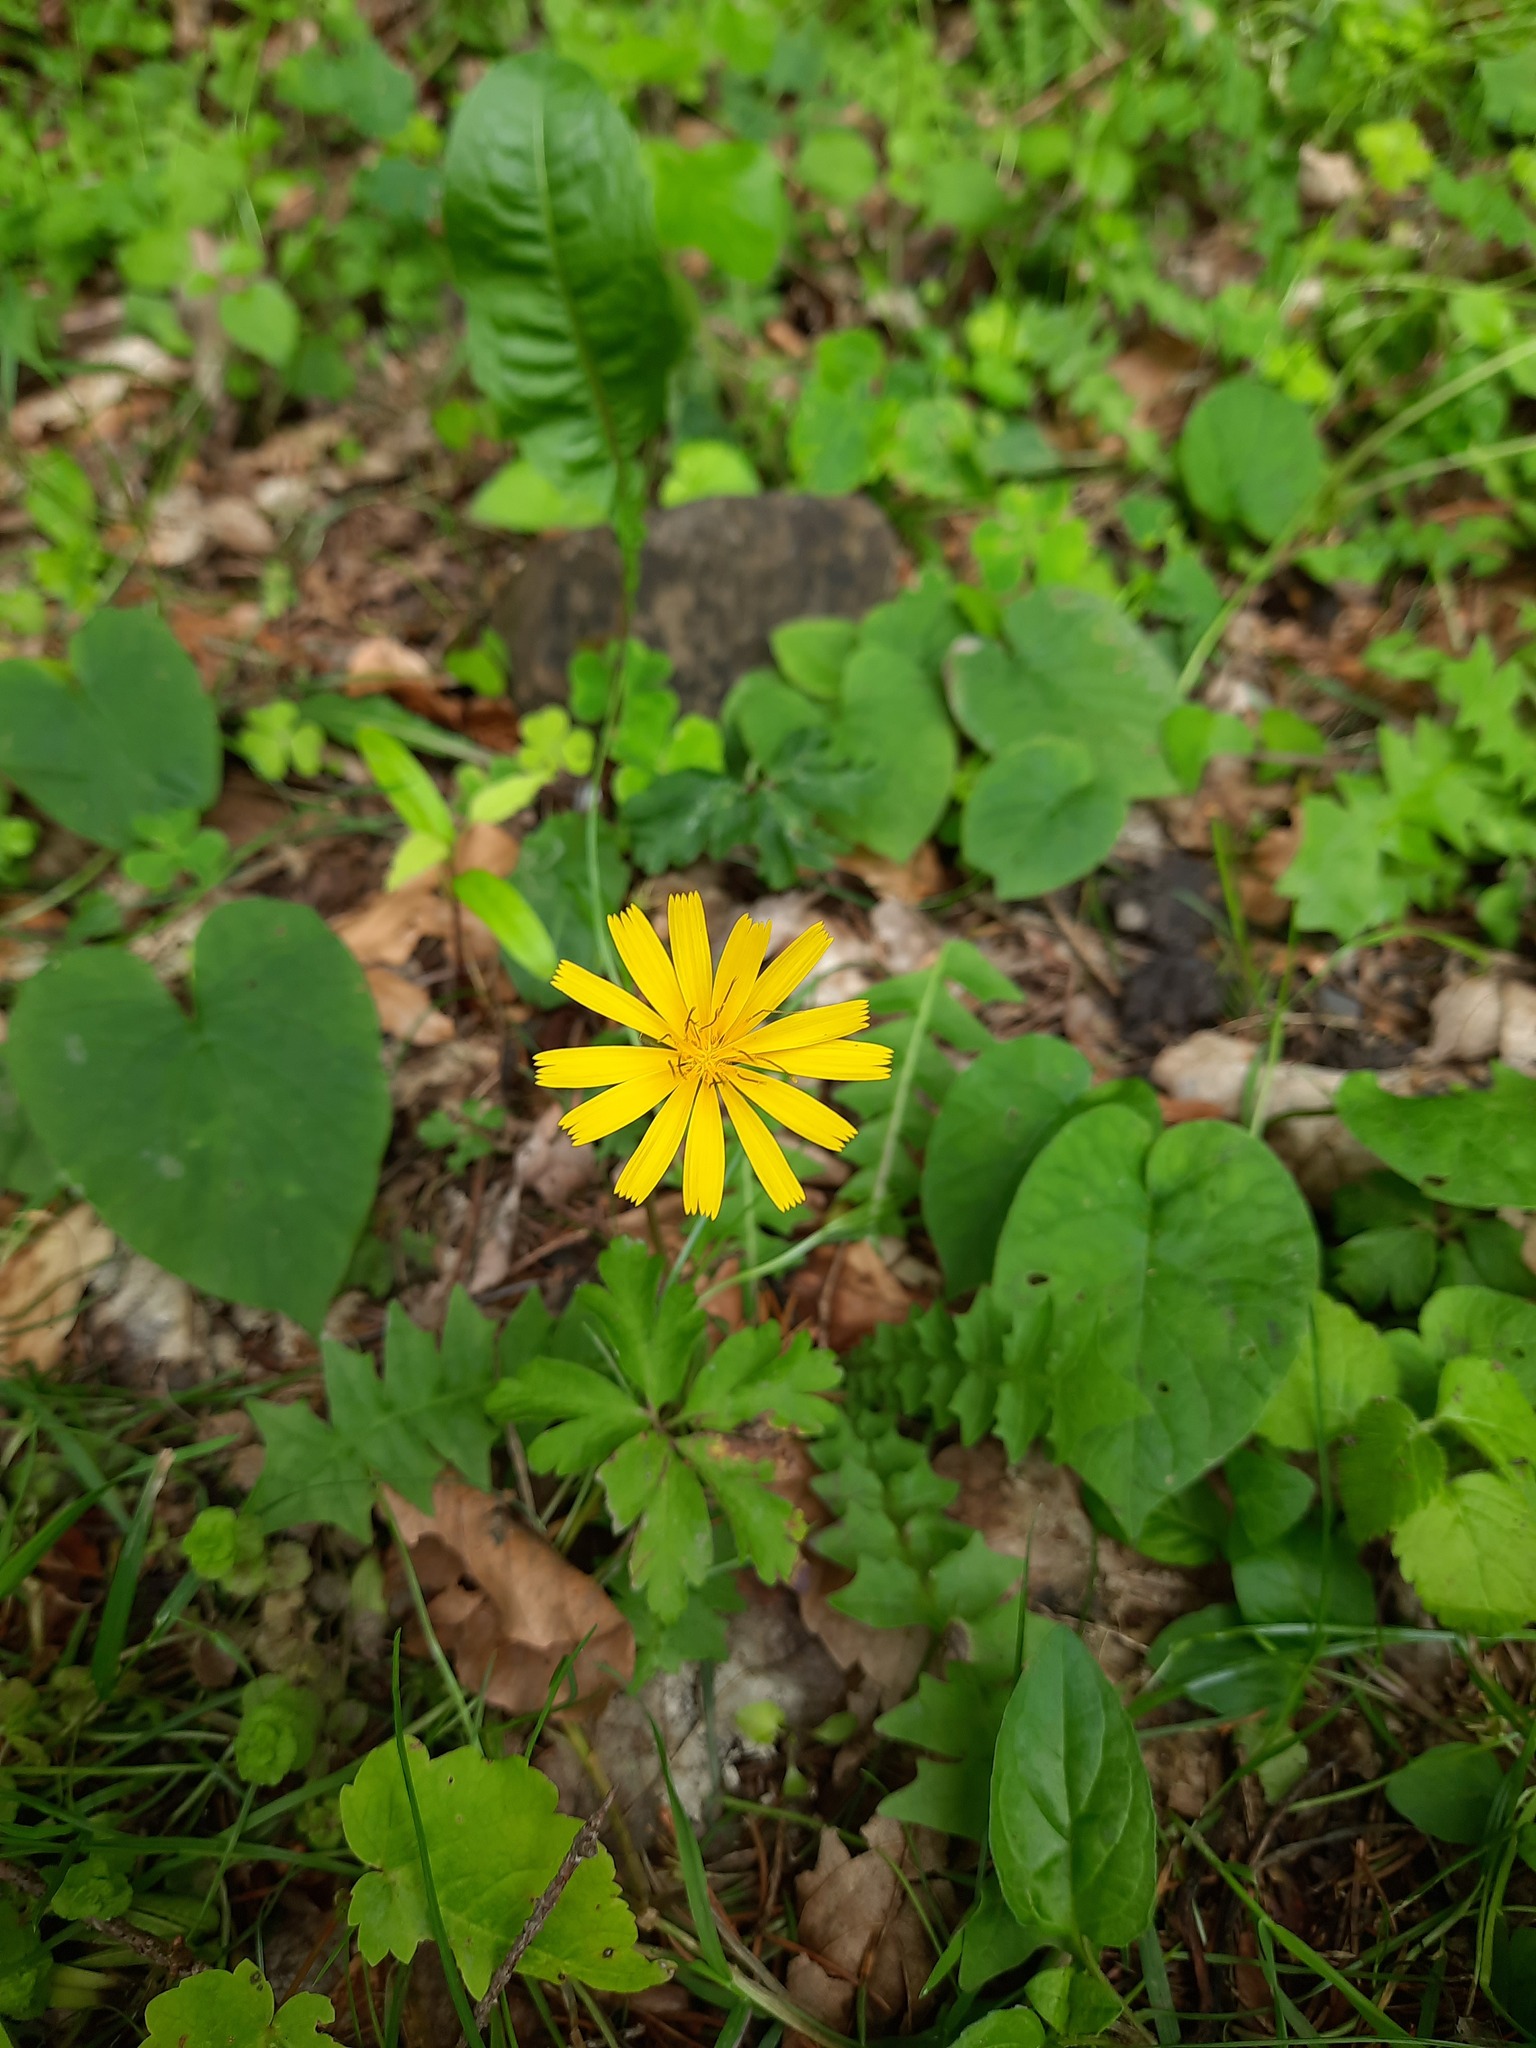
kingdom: Plantae
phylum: Tracheophyta
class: Magnoliopsida
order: Asterales
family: Asteraceae
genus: Aposeris
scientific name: Aposeris foetida
